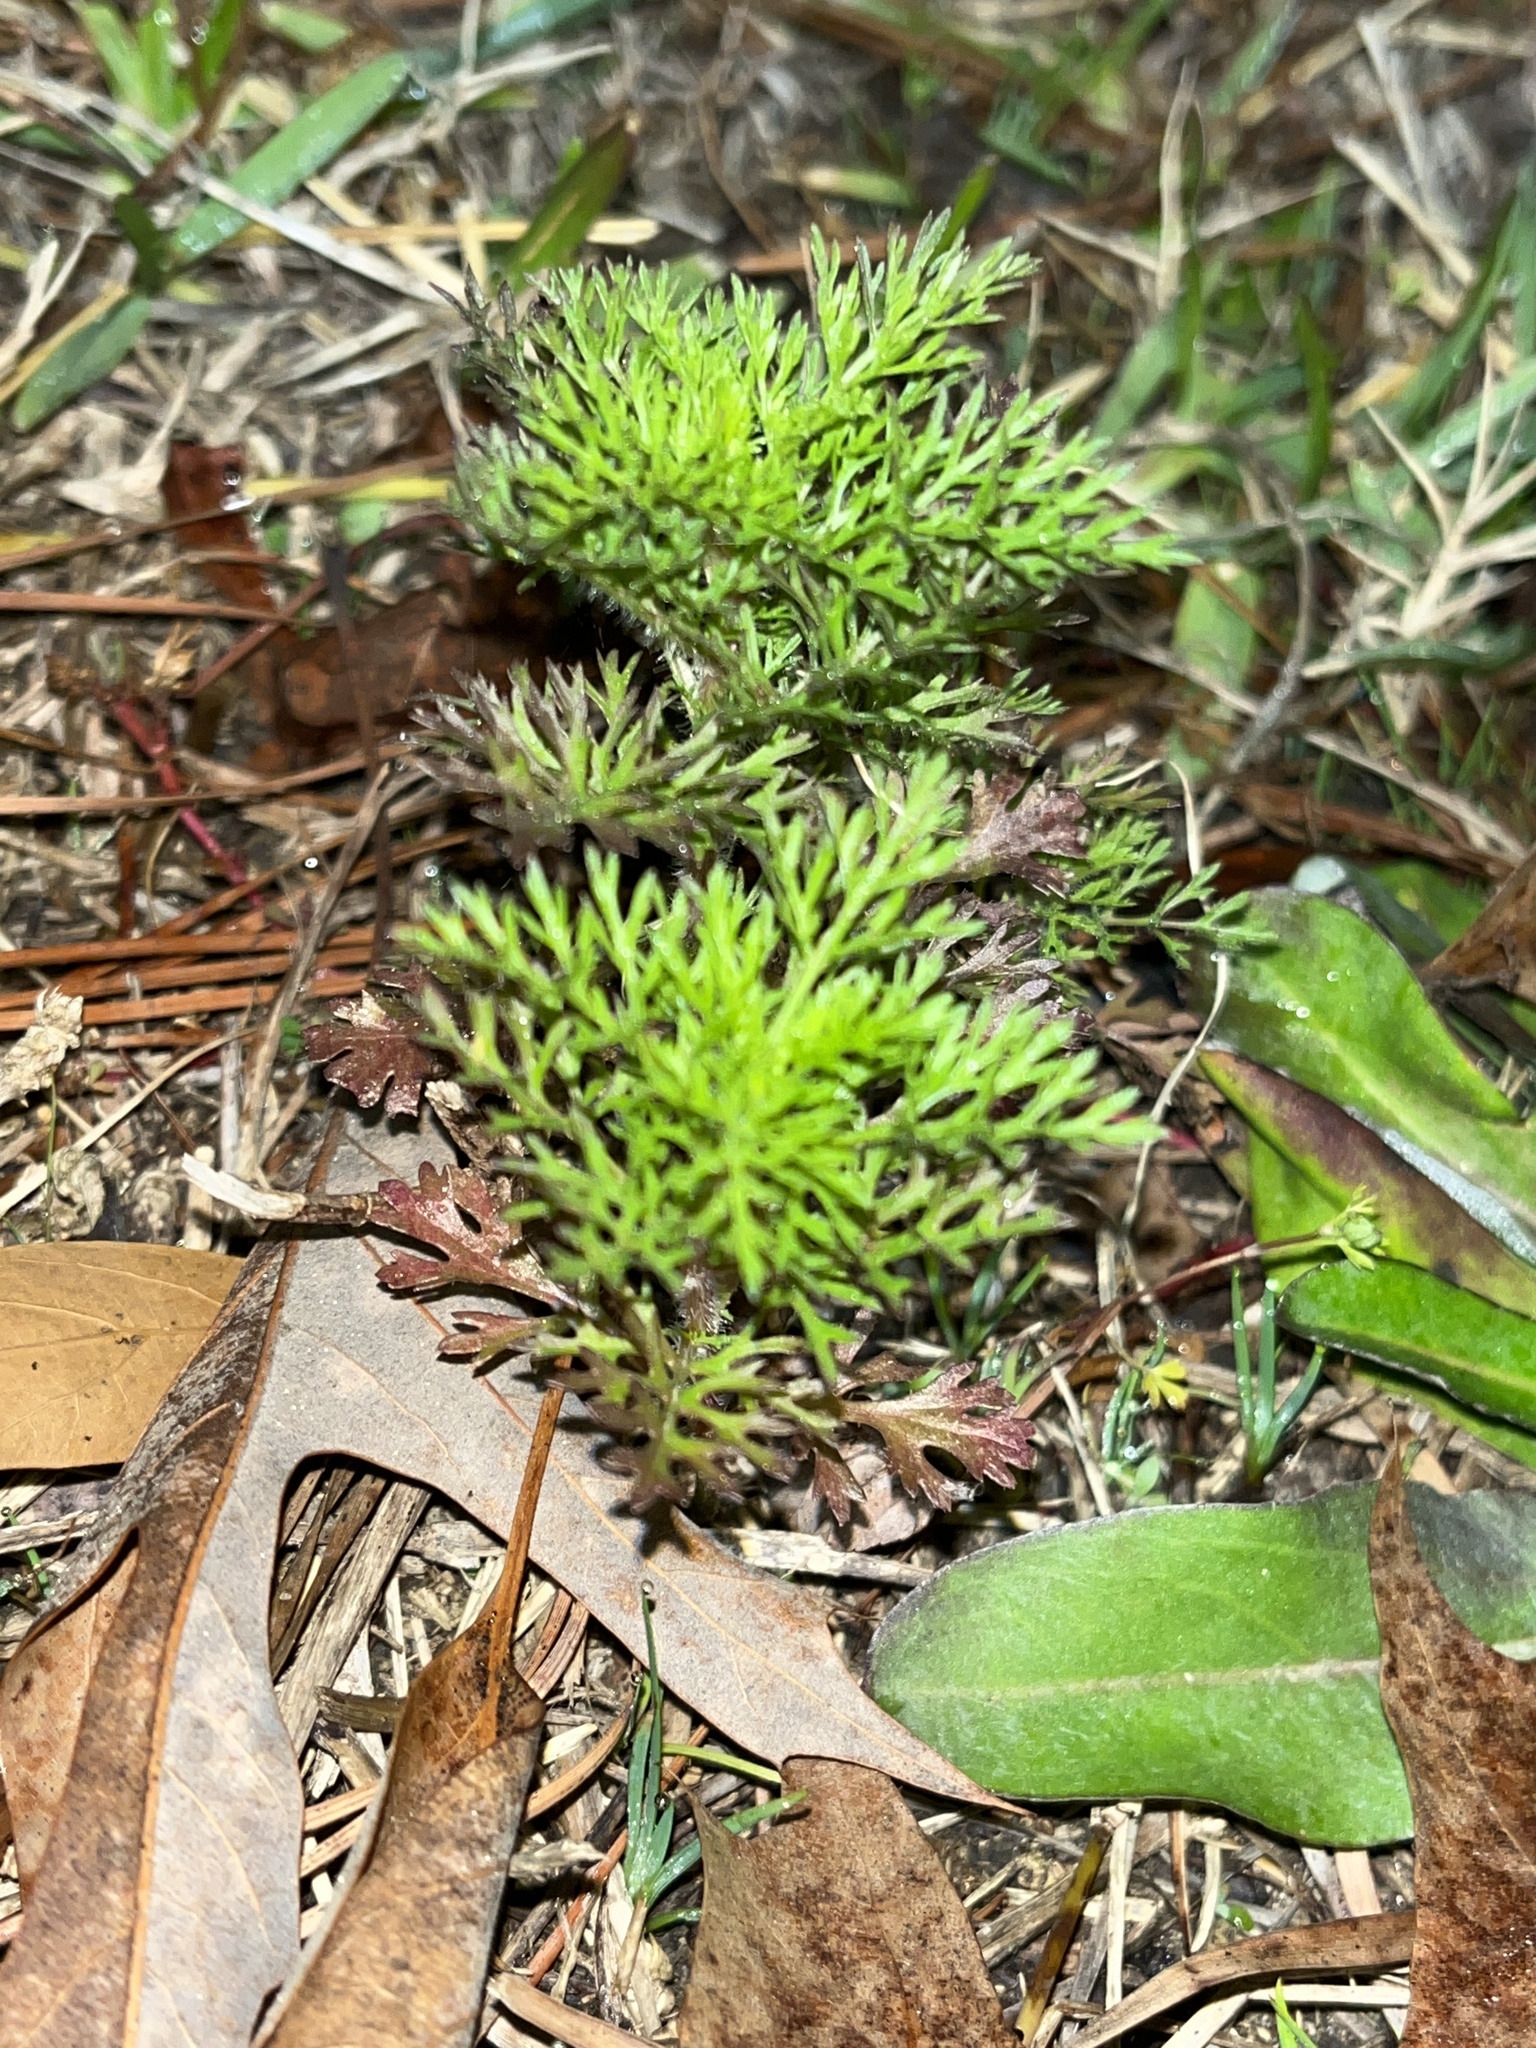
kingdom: Plantae
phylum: Tracheophyta
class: Magnoliopsida
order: Asterales
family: Asteraceae
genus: Eupatorium
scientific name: Eupatorium capillifolium
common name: Dog-fennel
